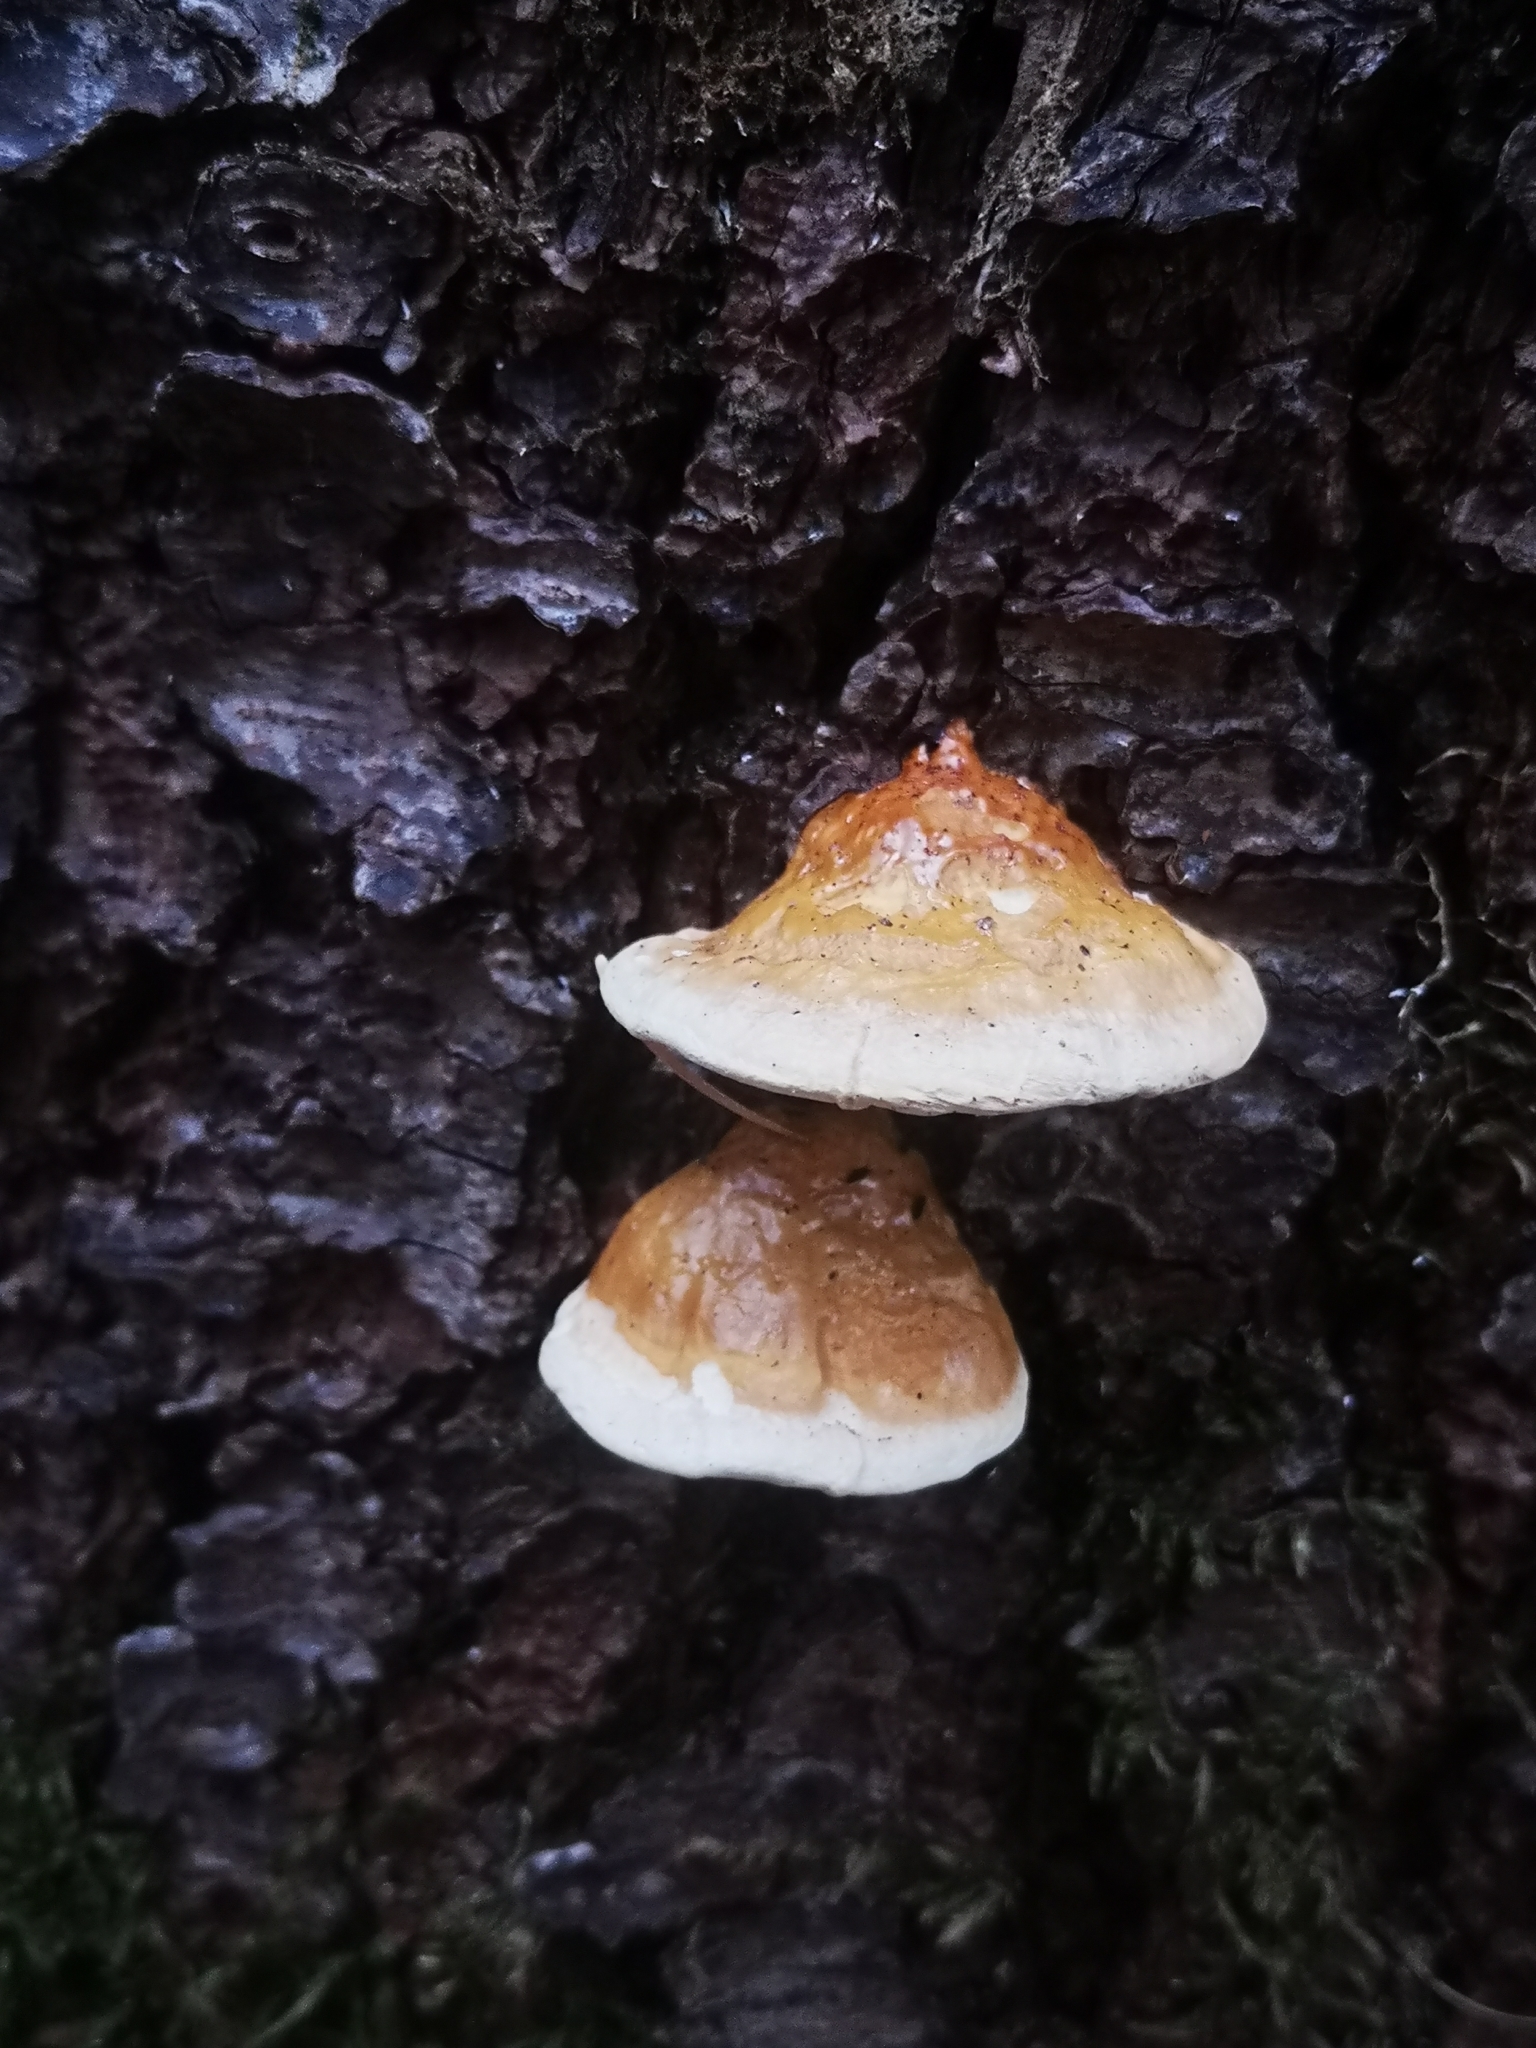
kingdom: Fungi
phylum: Basidiomycota
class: Agaricomycetes
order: Polyporales
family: Fomitopsidaceae
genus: Fomitopsis
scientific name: Fomitopsis mounceae
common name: Northern red belt
